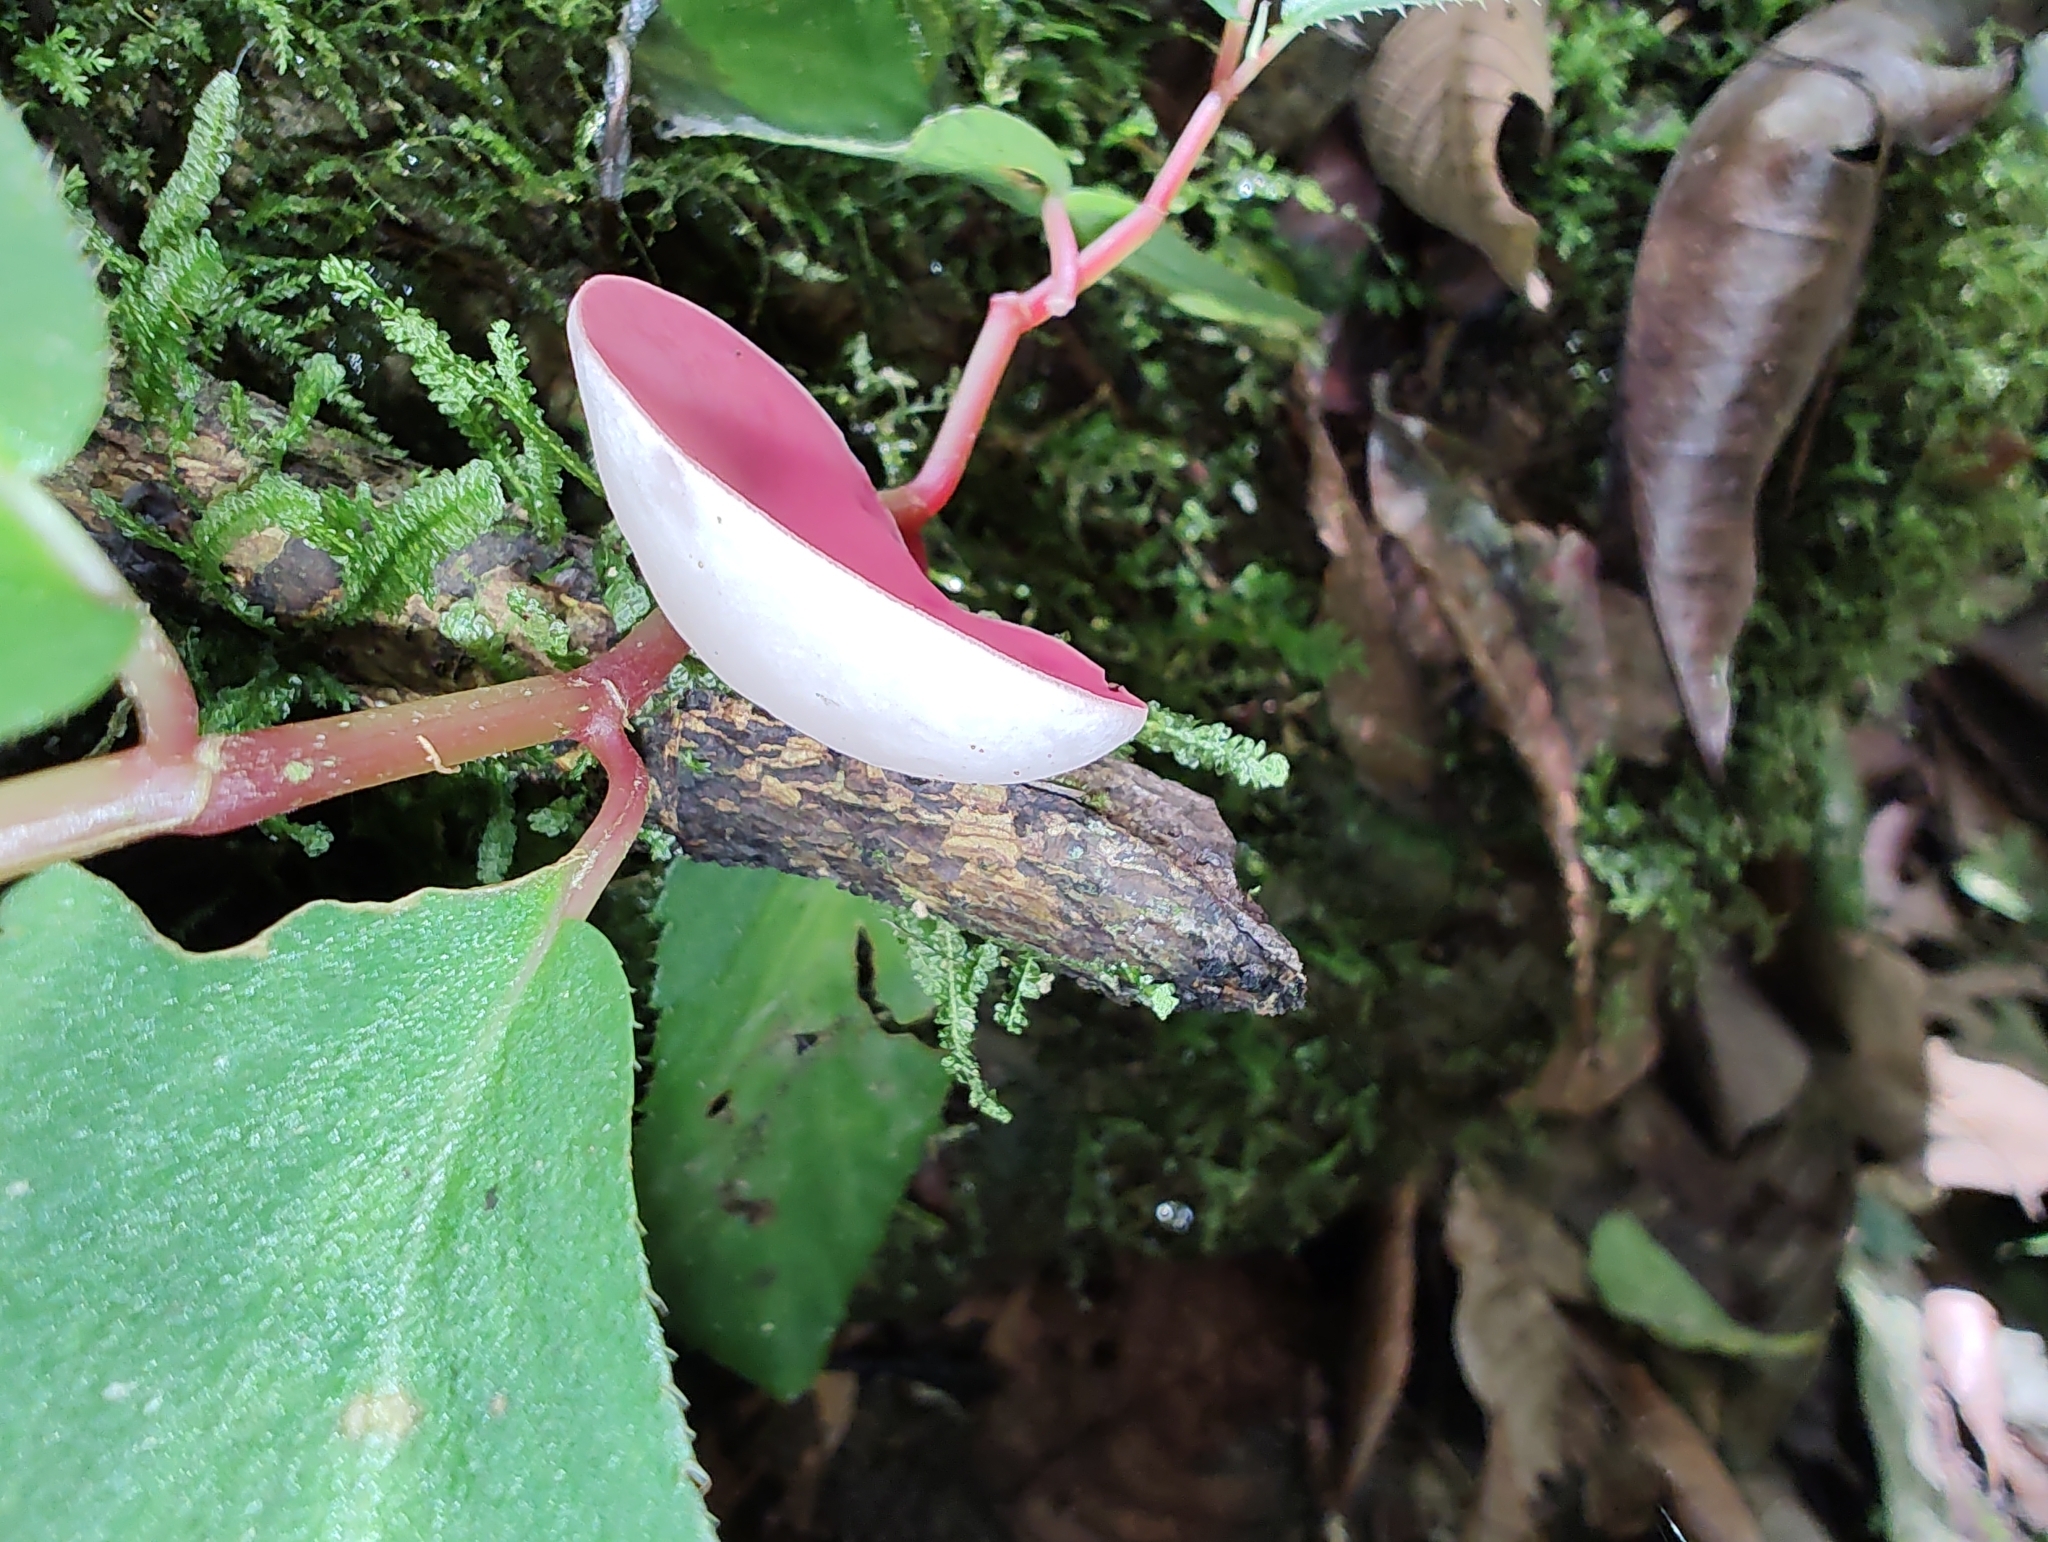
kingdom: Fungi
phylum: Ascomycota
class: Pezizomycetes
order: Pezizales
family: Sarcoscyphaceae
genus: Phillipsia
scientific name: Phillipsia domingensis
